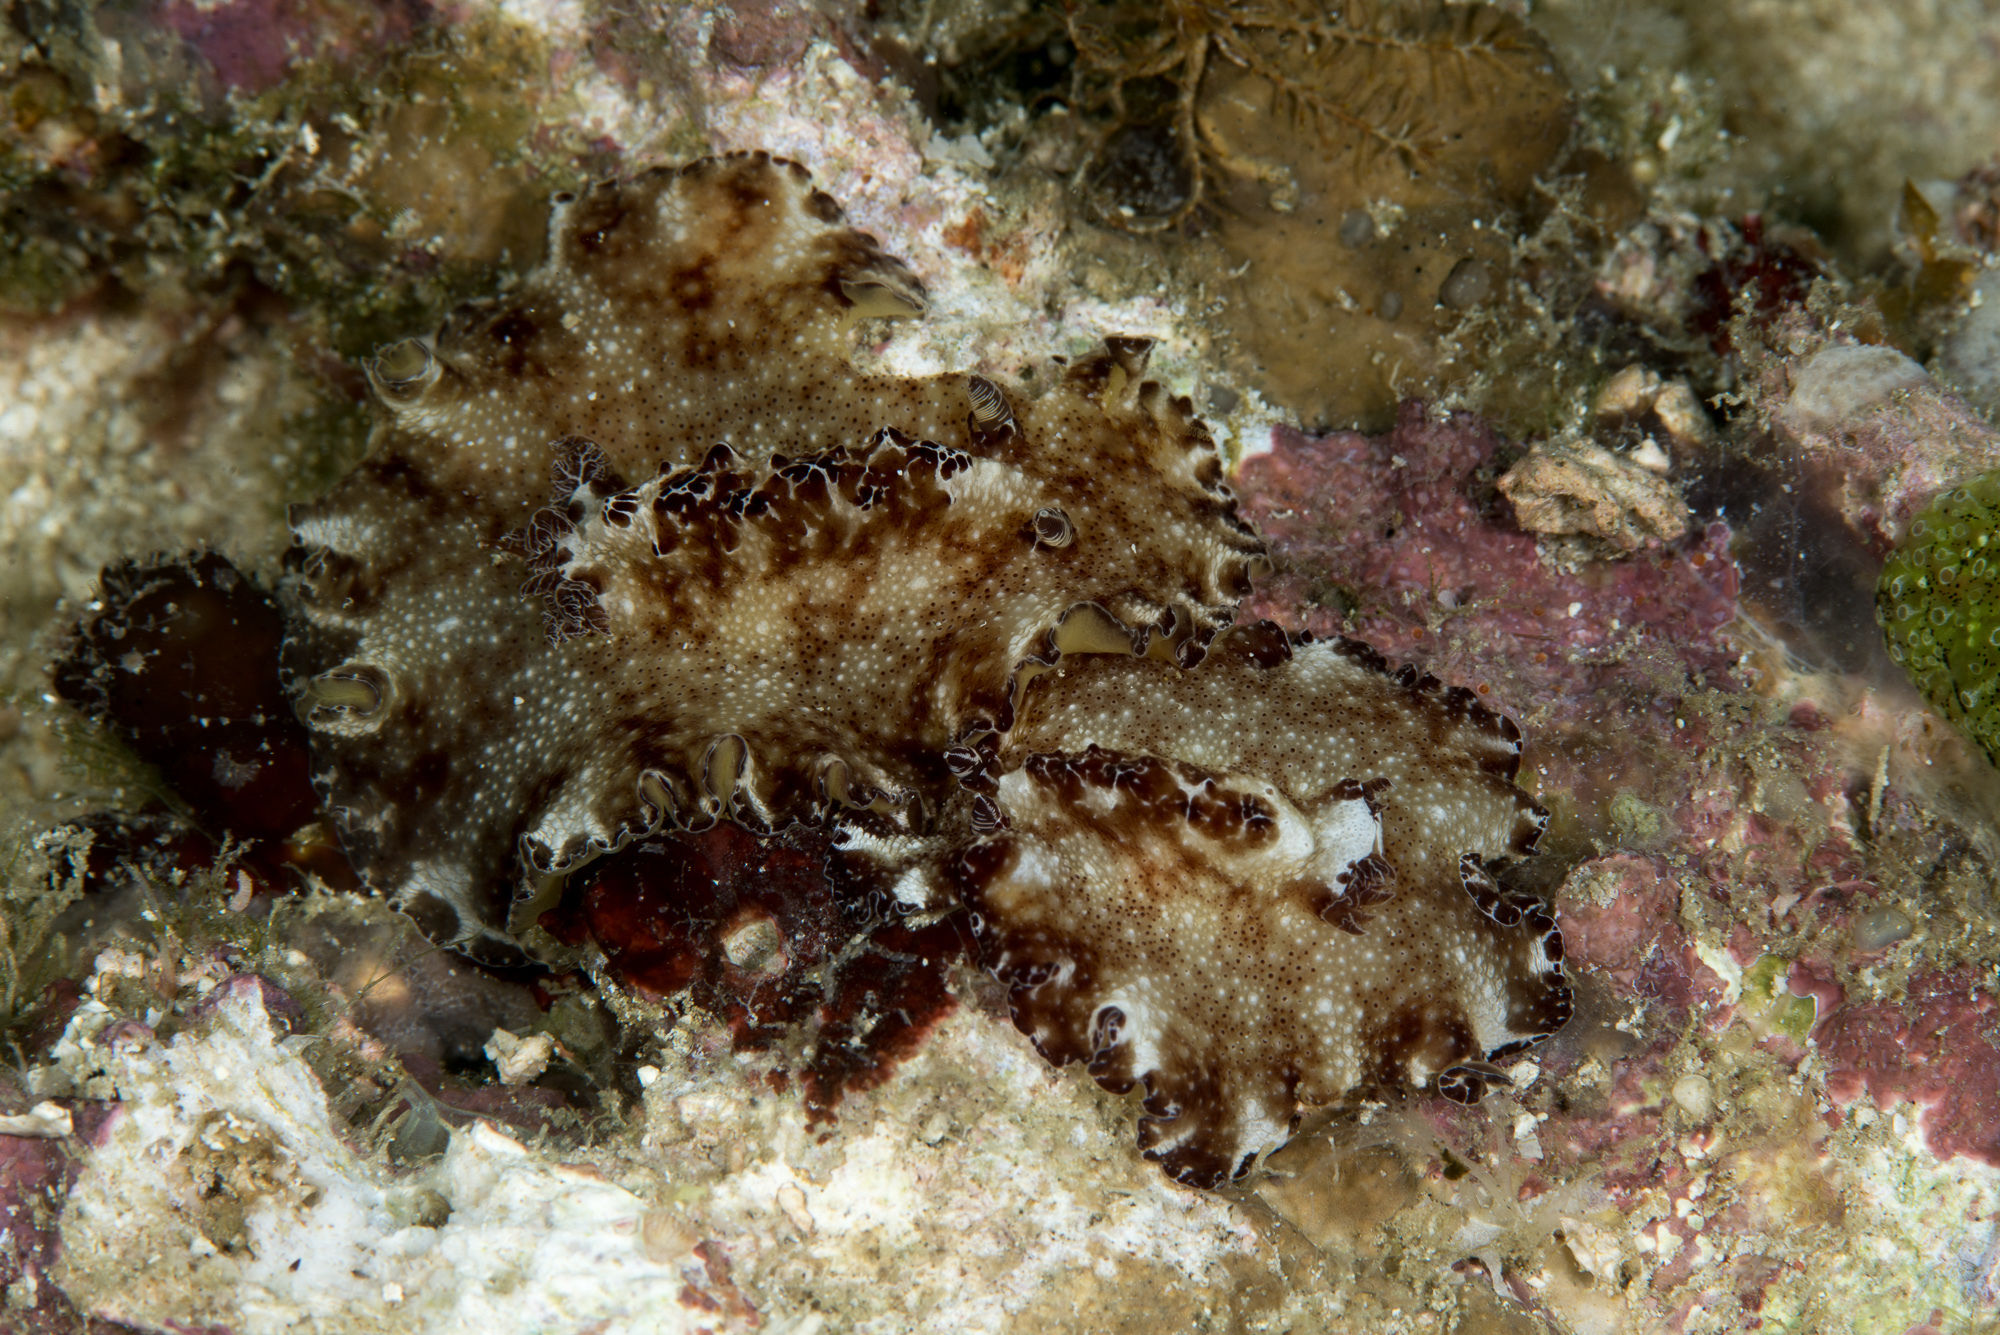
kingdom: Animalia
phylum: Mollusca
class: Gastropoda
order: Nudibranchia
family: Discodorididae
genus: Discodoris
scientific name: Discodoris boholiensis
